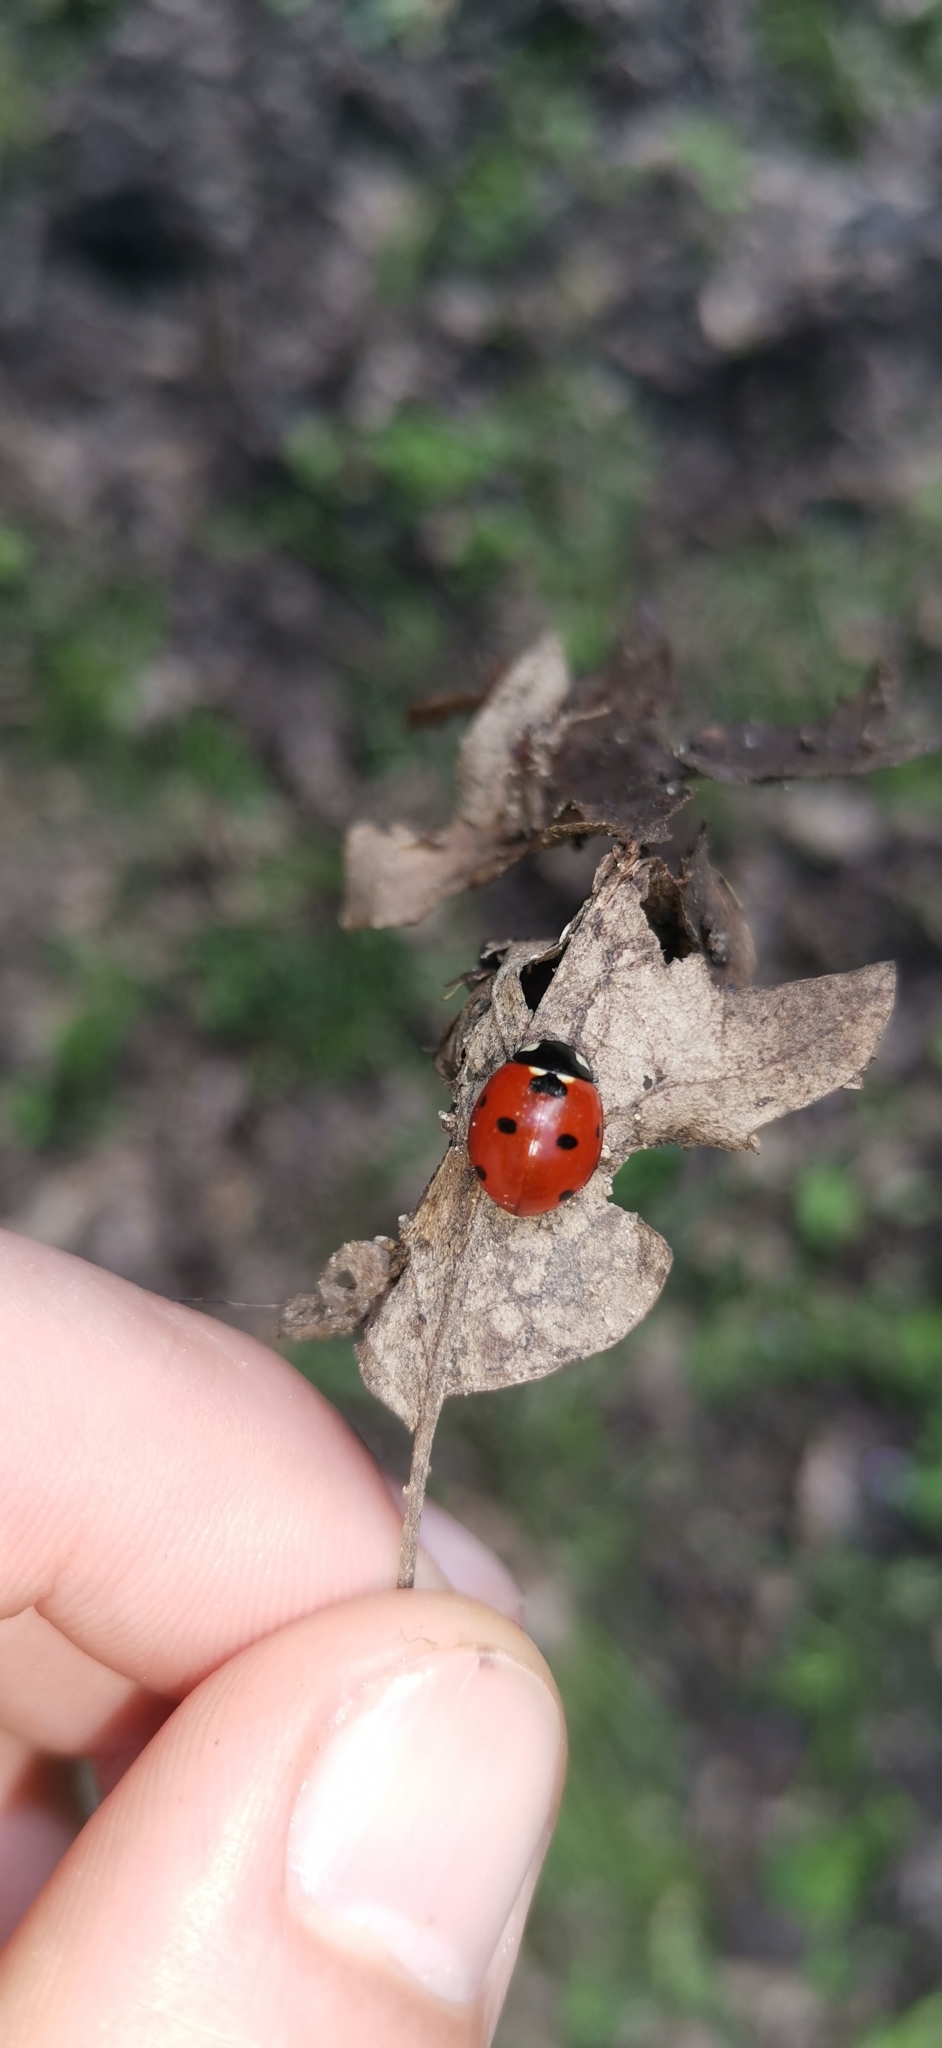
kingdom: Animalia
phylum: Arthropoda
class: Insecta
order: Coleoptera
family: Coccinellidae
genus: Coccinella
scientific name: Coccinella septempunctata
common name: Sevenspotted lady beetle
